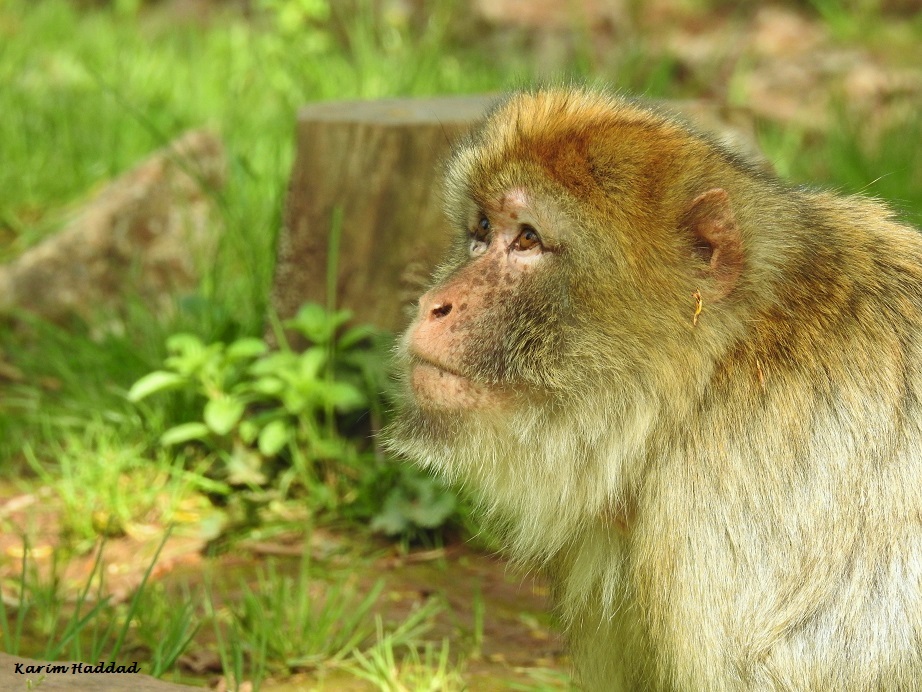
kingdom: Animalia
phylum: Chordata
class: Mammalia
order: Primates
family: Cercopithecidae
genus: Macaca
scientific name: Macaca sylvanus
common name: Barbary macaque
